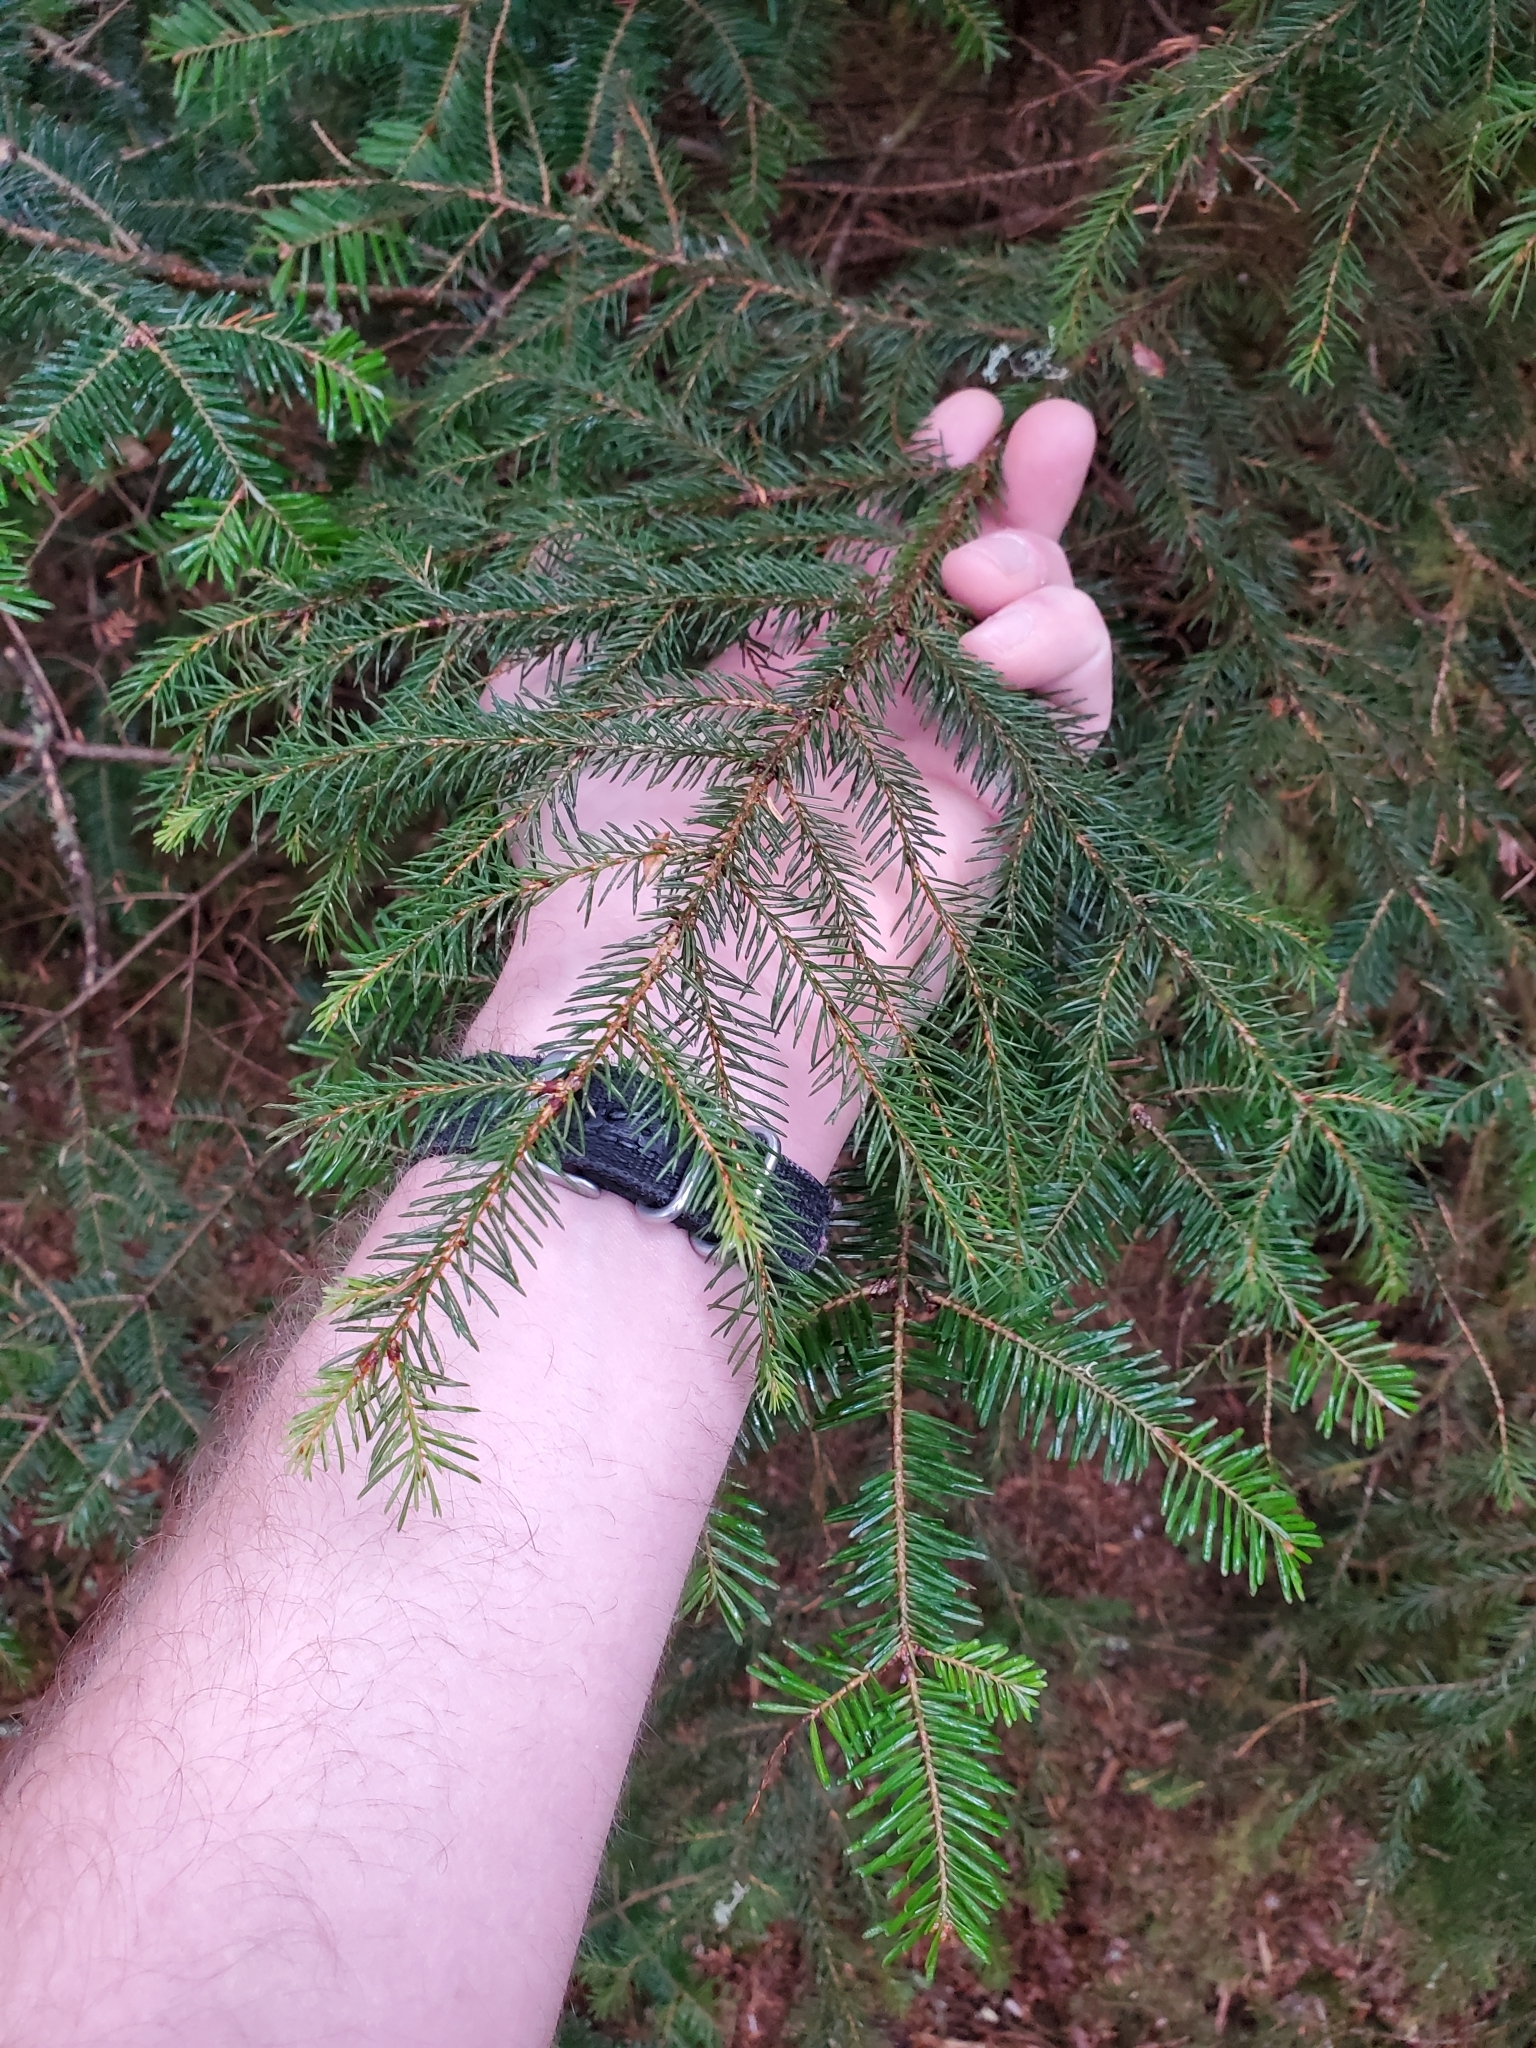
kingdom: Plantae
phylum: Tracheophyta
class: Pinopsida
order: Pinales
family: Pinaceae
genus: Picea
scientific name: Picea rubens
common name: Red spruce
